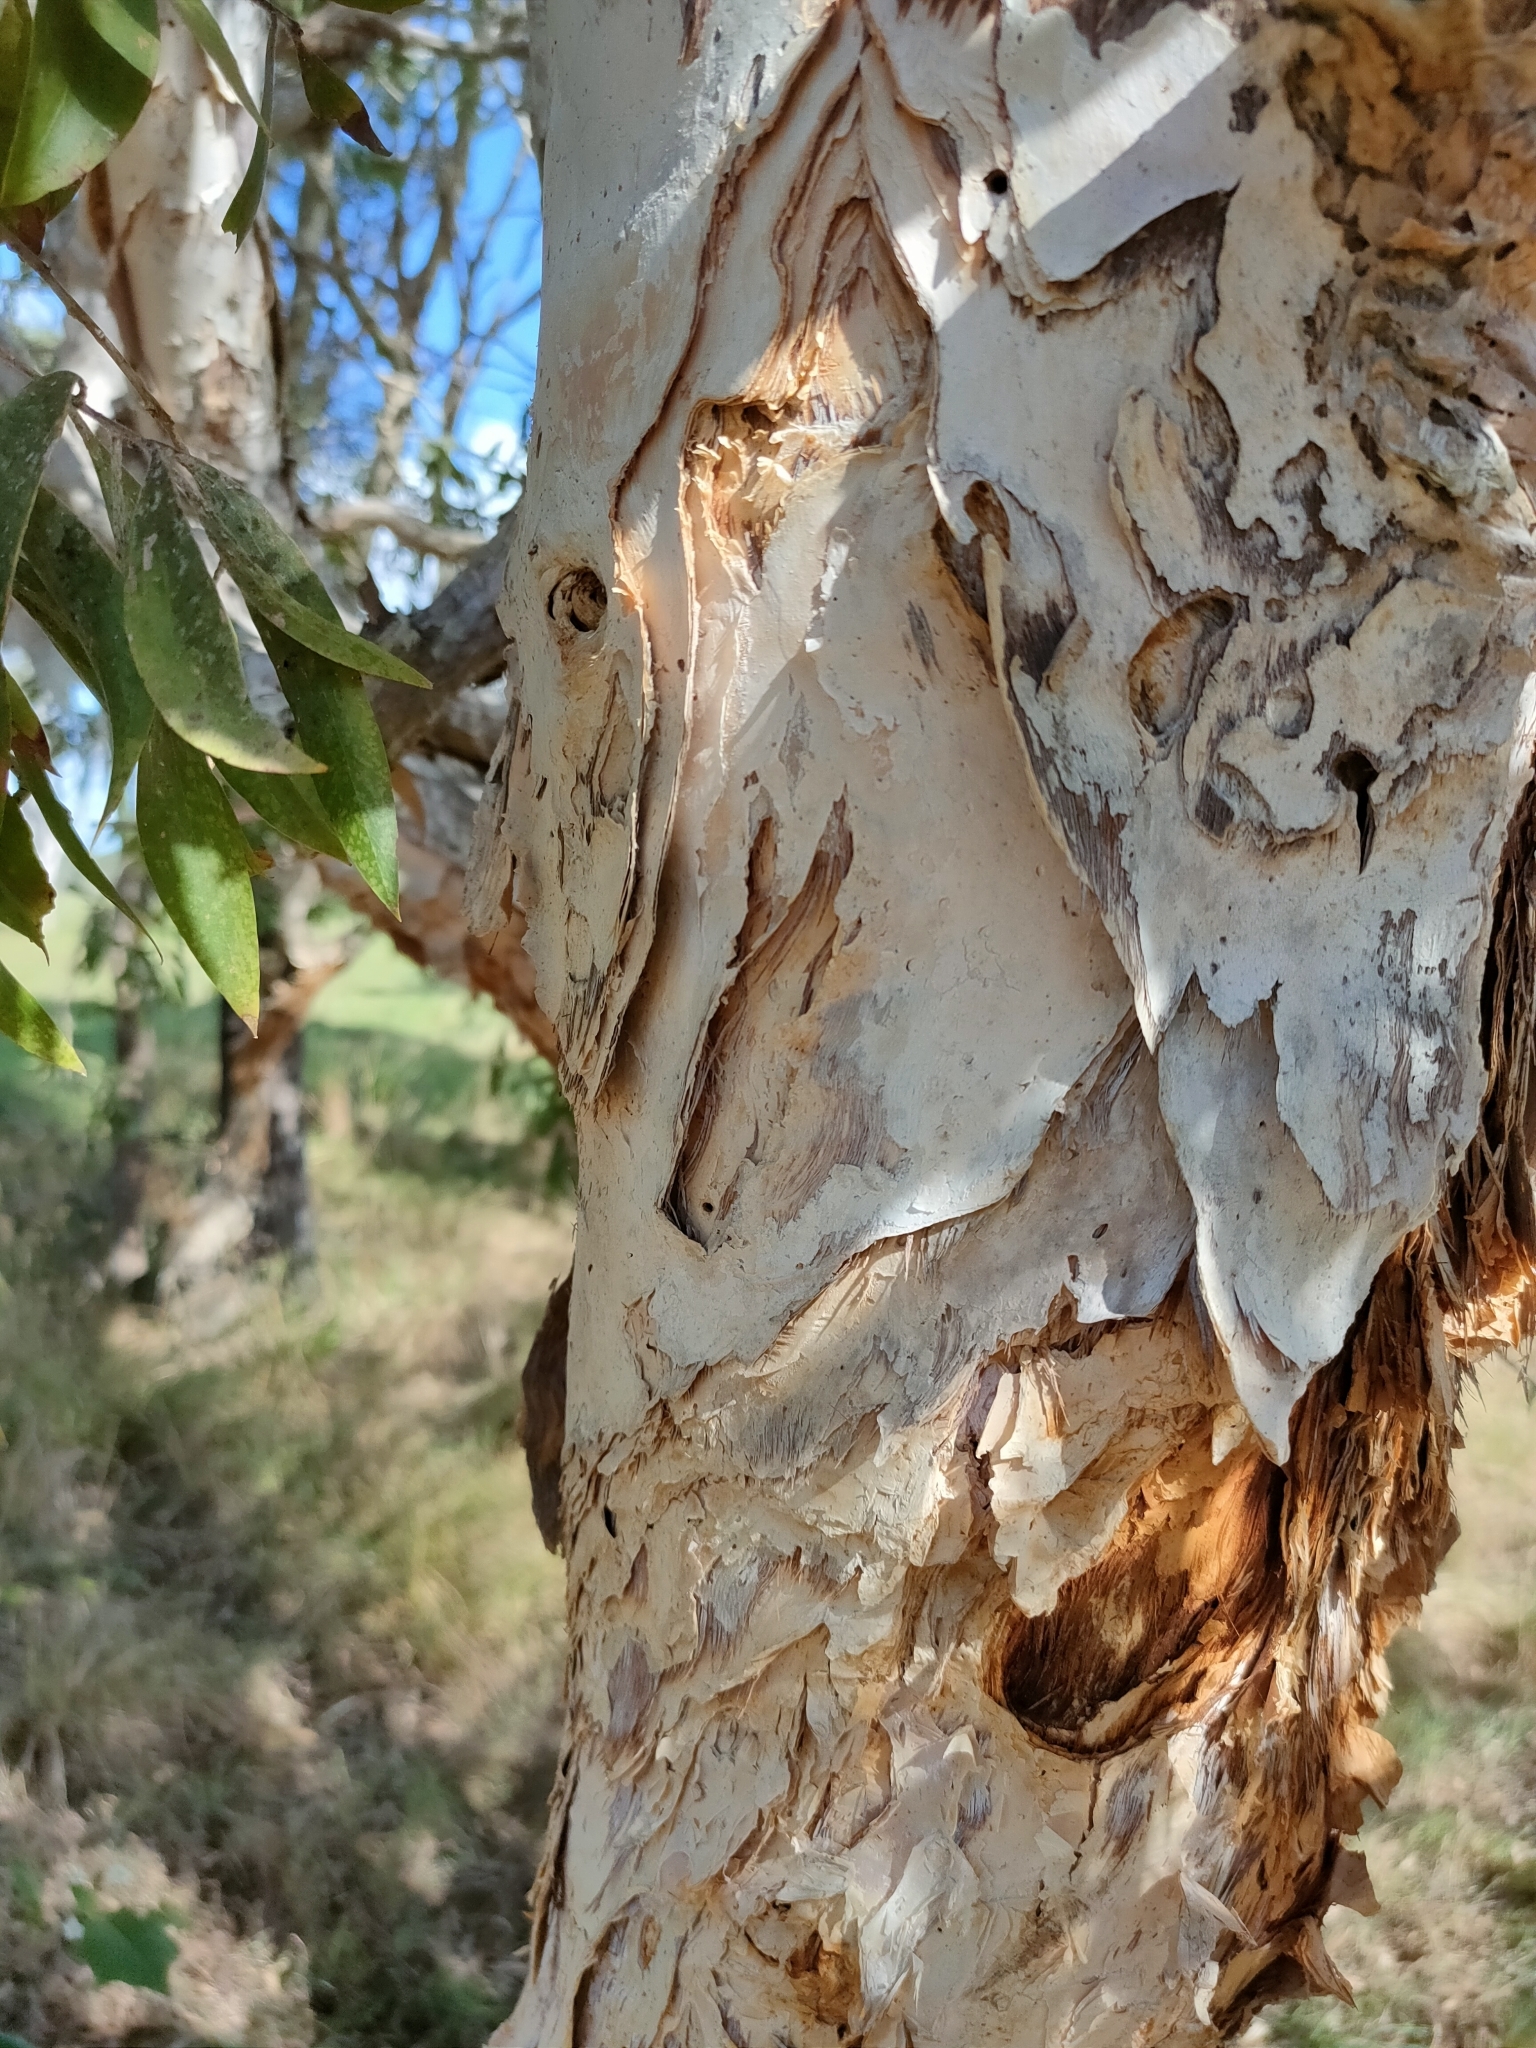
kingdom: Plantae
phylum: Tracheophyta
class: Magnoliopsida
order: Myrtales
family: Myrtaceae
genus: Melaleuca
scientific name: Melaleuca dealbata
